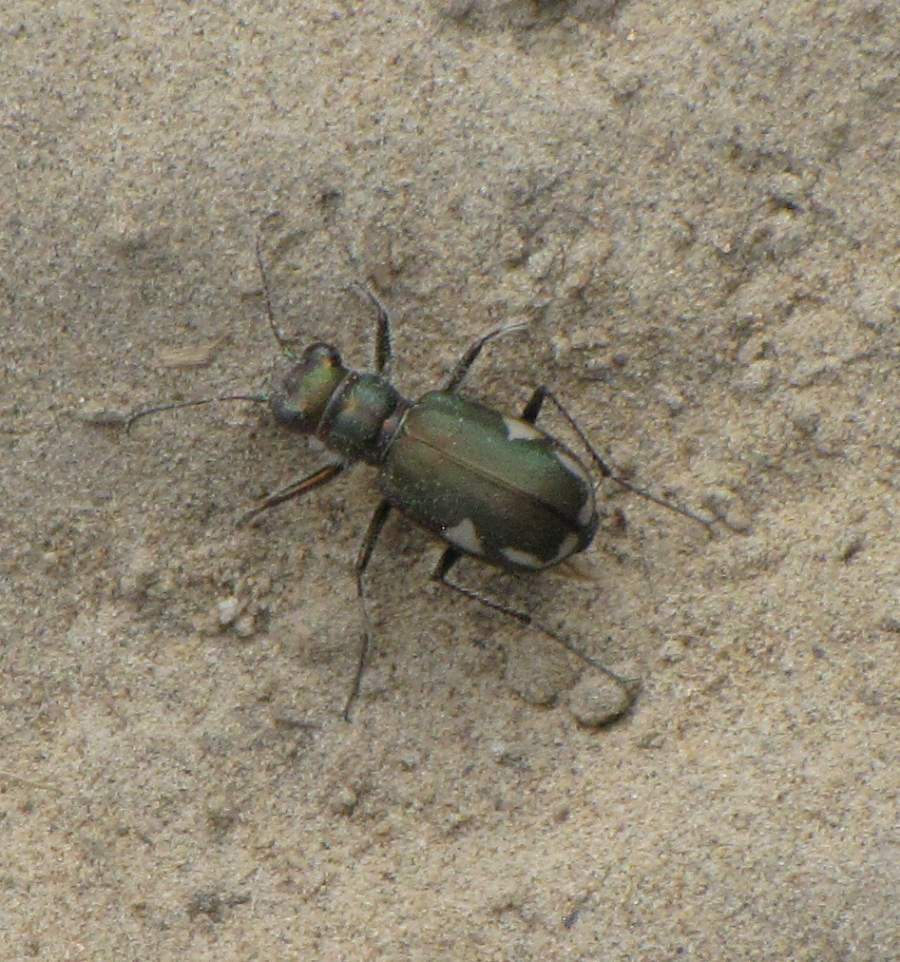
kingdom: Animalia
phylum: Arthropoda
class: Insecta
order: Coleoptera
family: Carabidae
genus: Cicindela
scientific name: Cicindela scutellaris
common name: Festive tiger beetle
